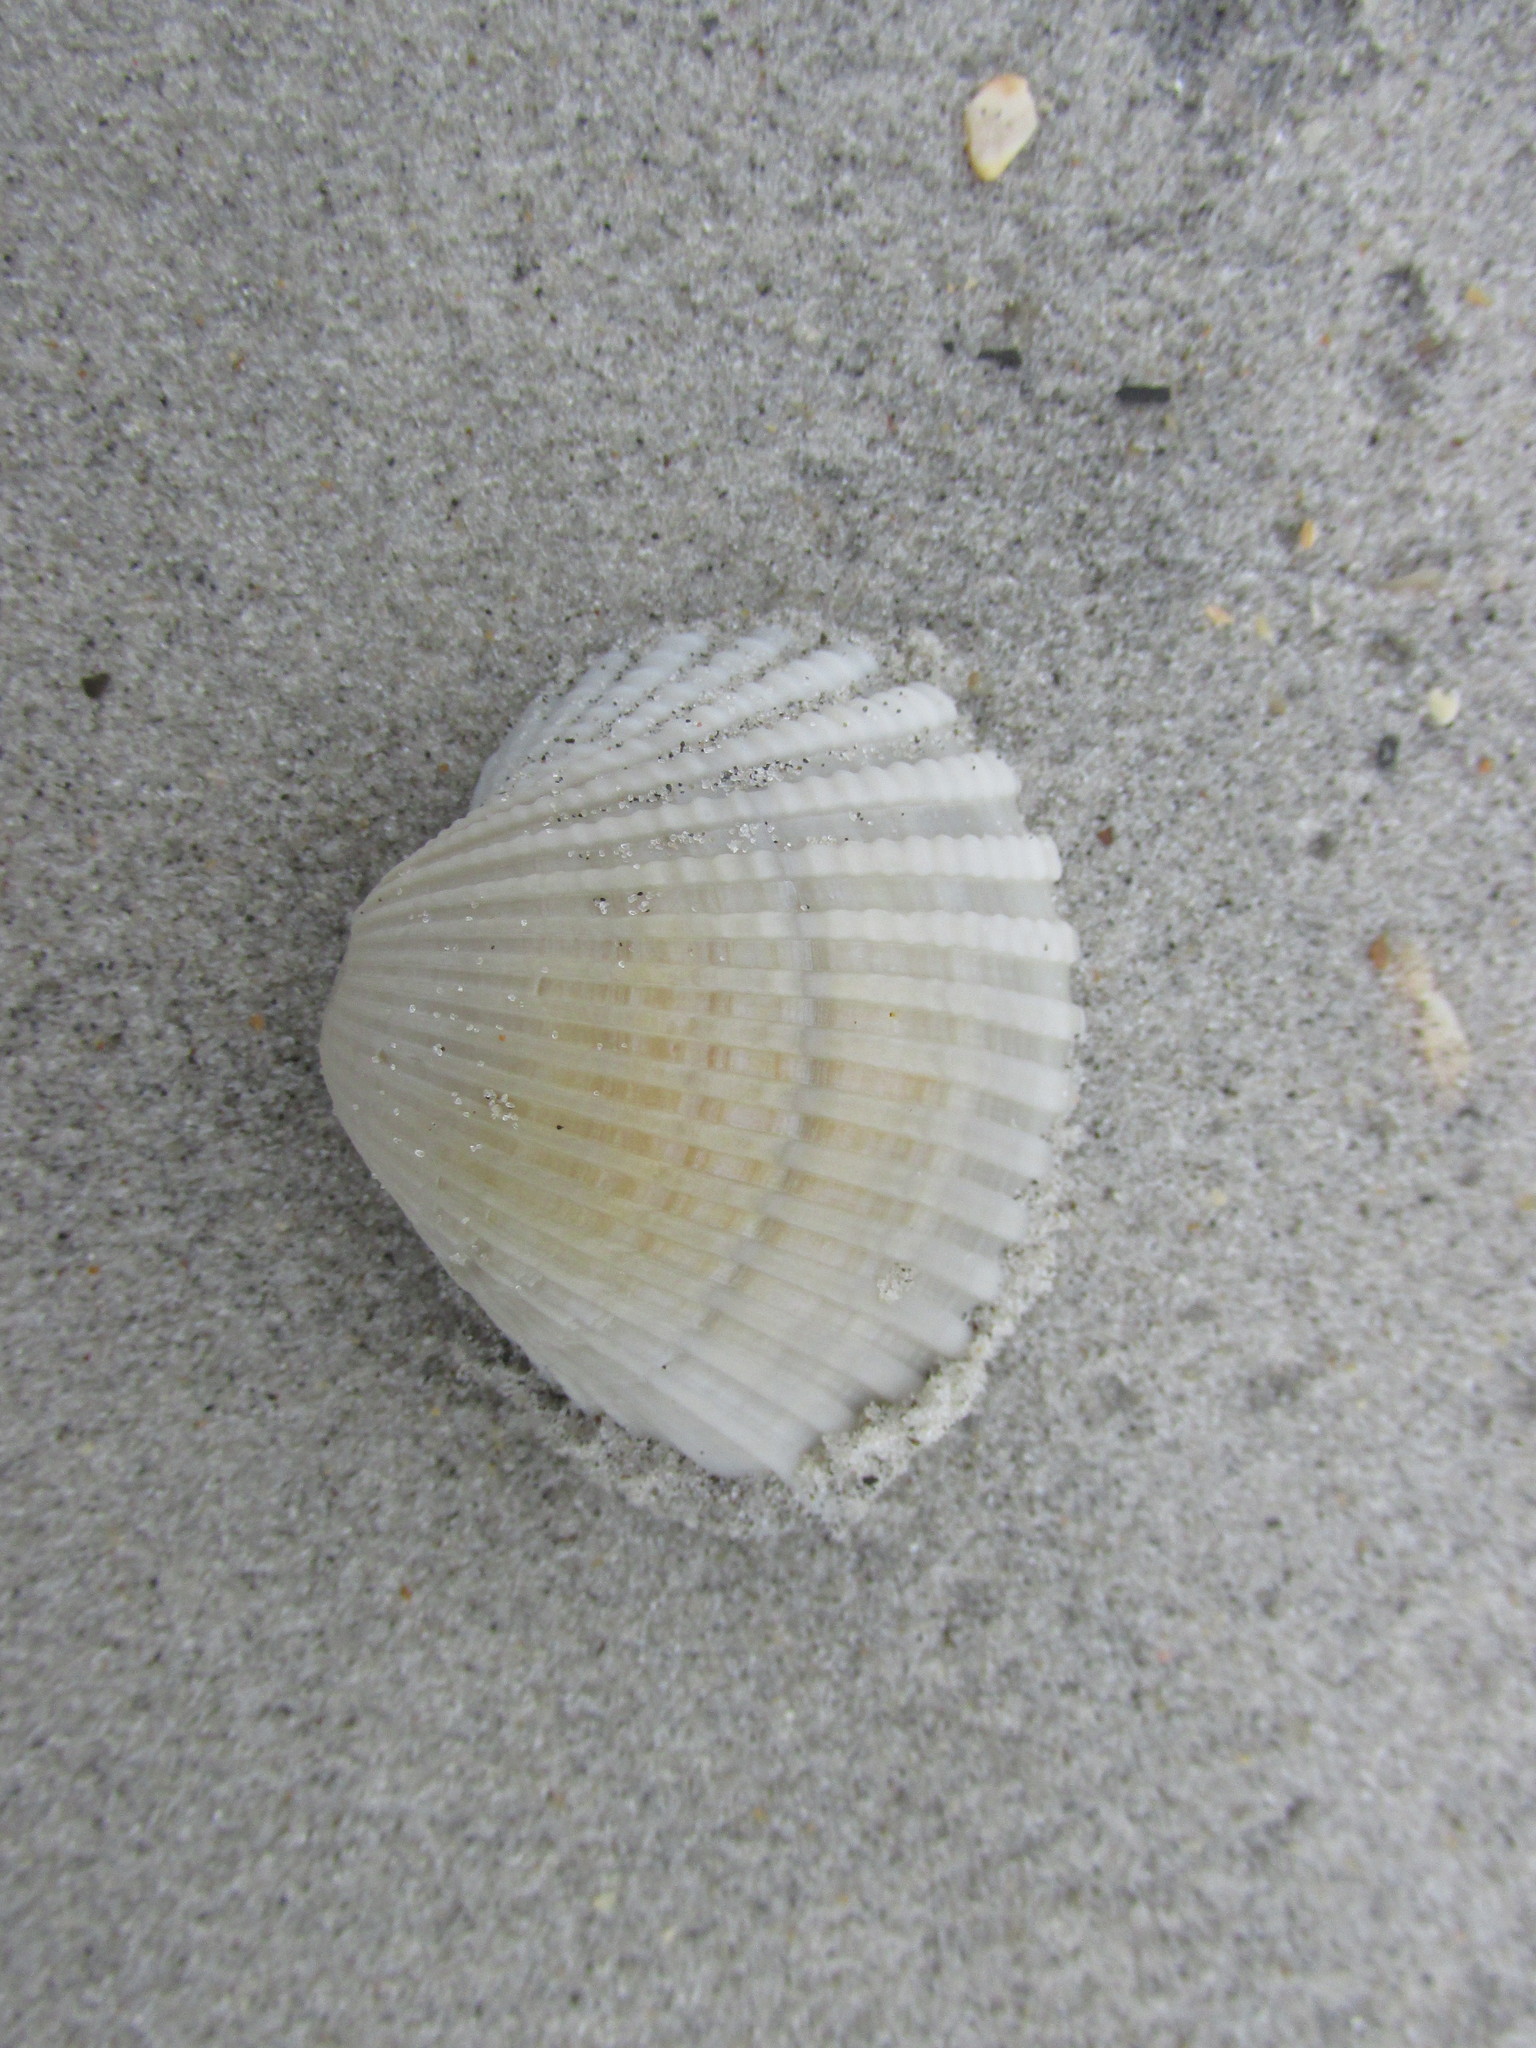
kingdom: Animalia
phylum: Mollusca
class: Bivalvia
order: Arcida
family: Arcidae
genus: Anadara
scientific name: Anadara brasiliana
